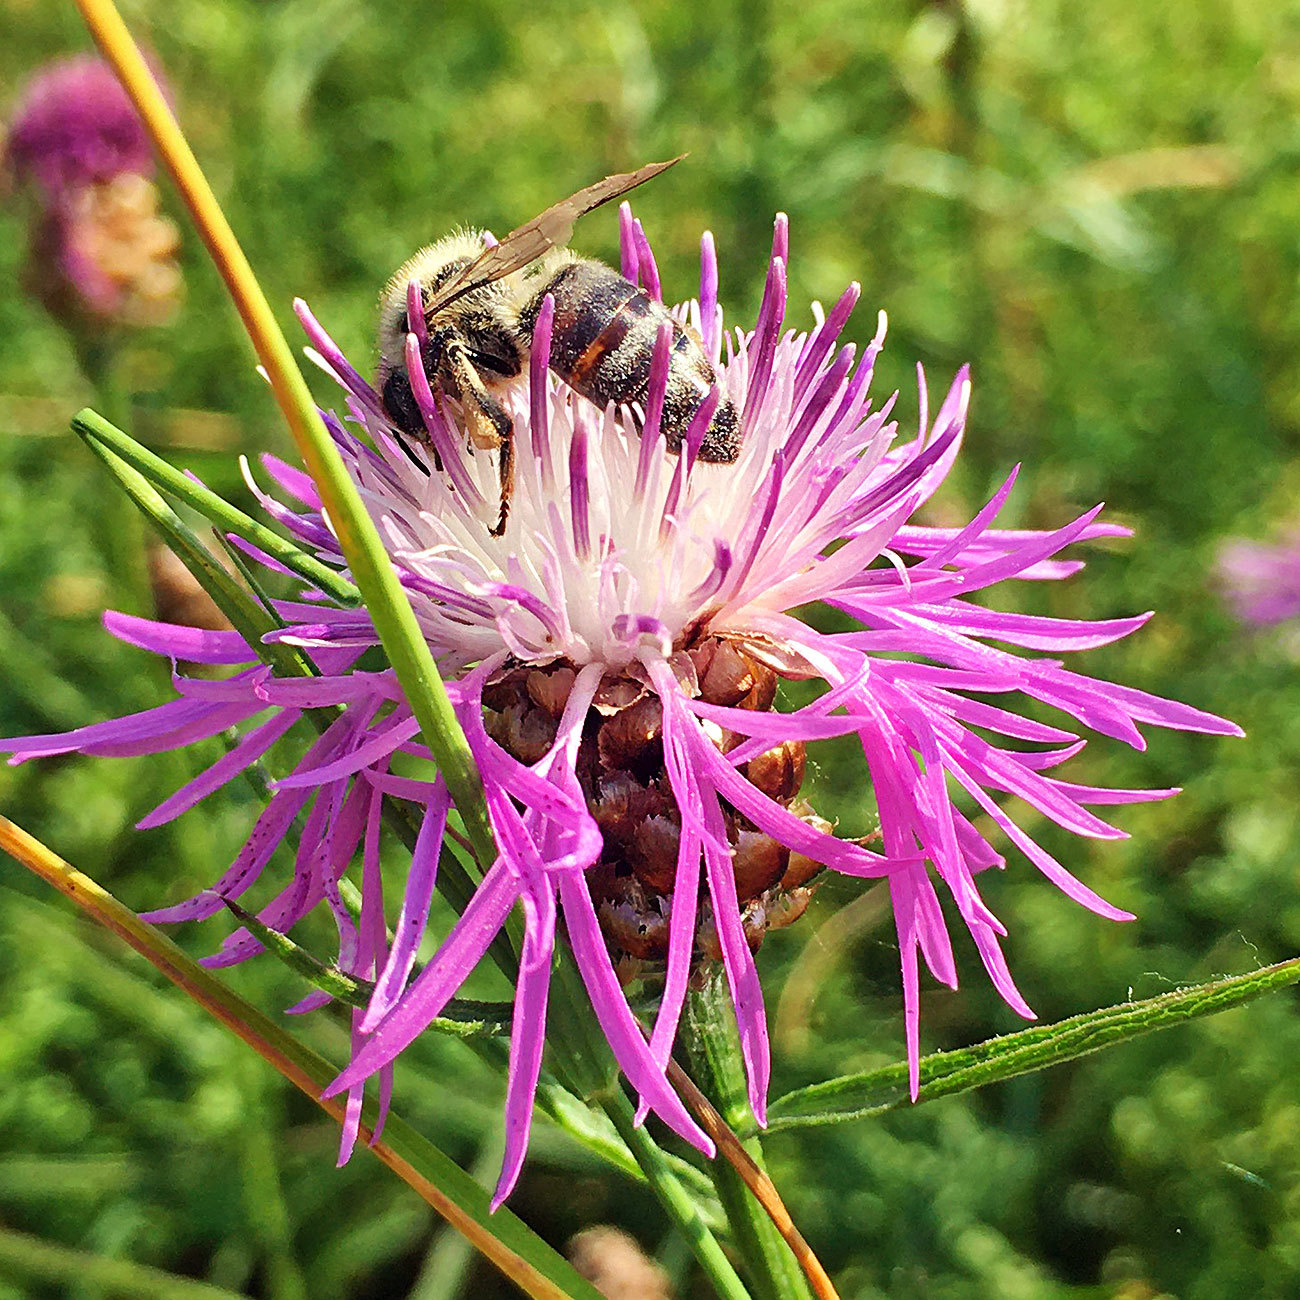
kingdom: Animalia
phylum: Arthropoda
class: Insecta
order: Hymenoptera
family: Apidae
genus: Apis
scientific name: Apis mellifera
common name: Honey bee
